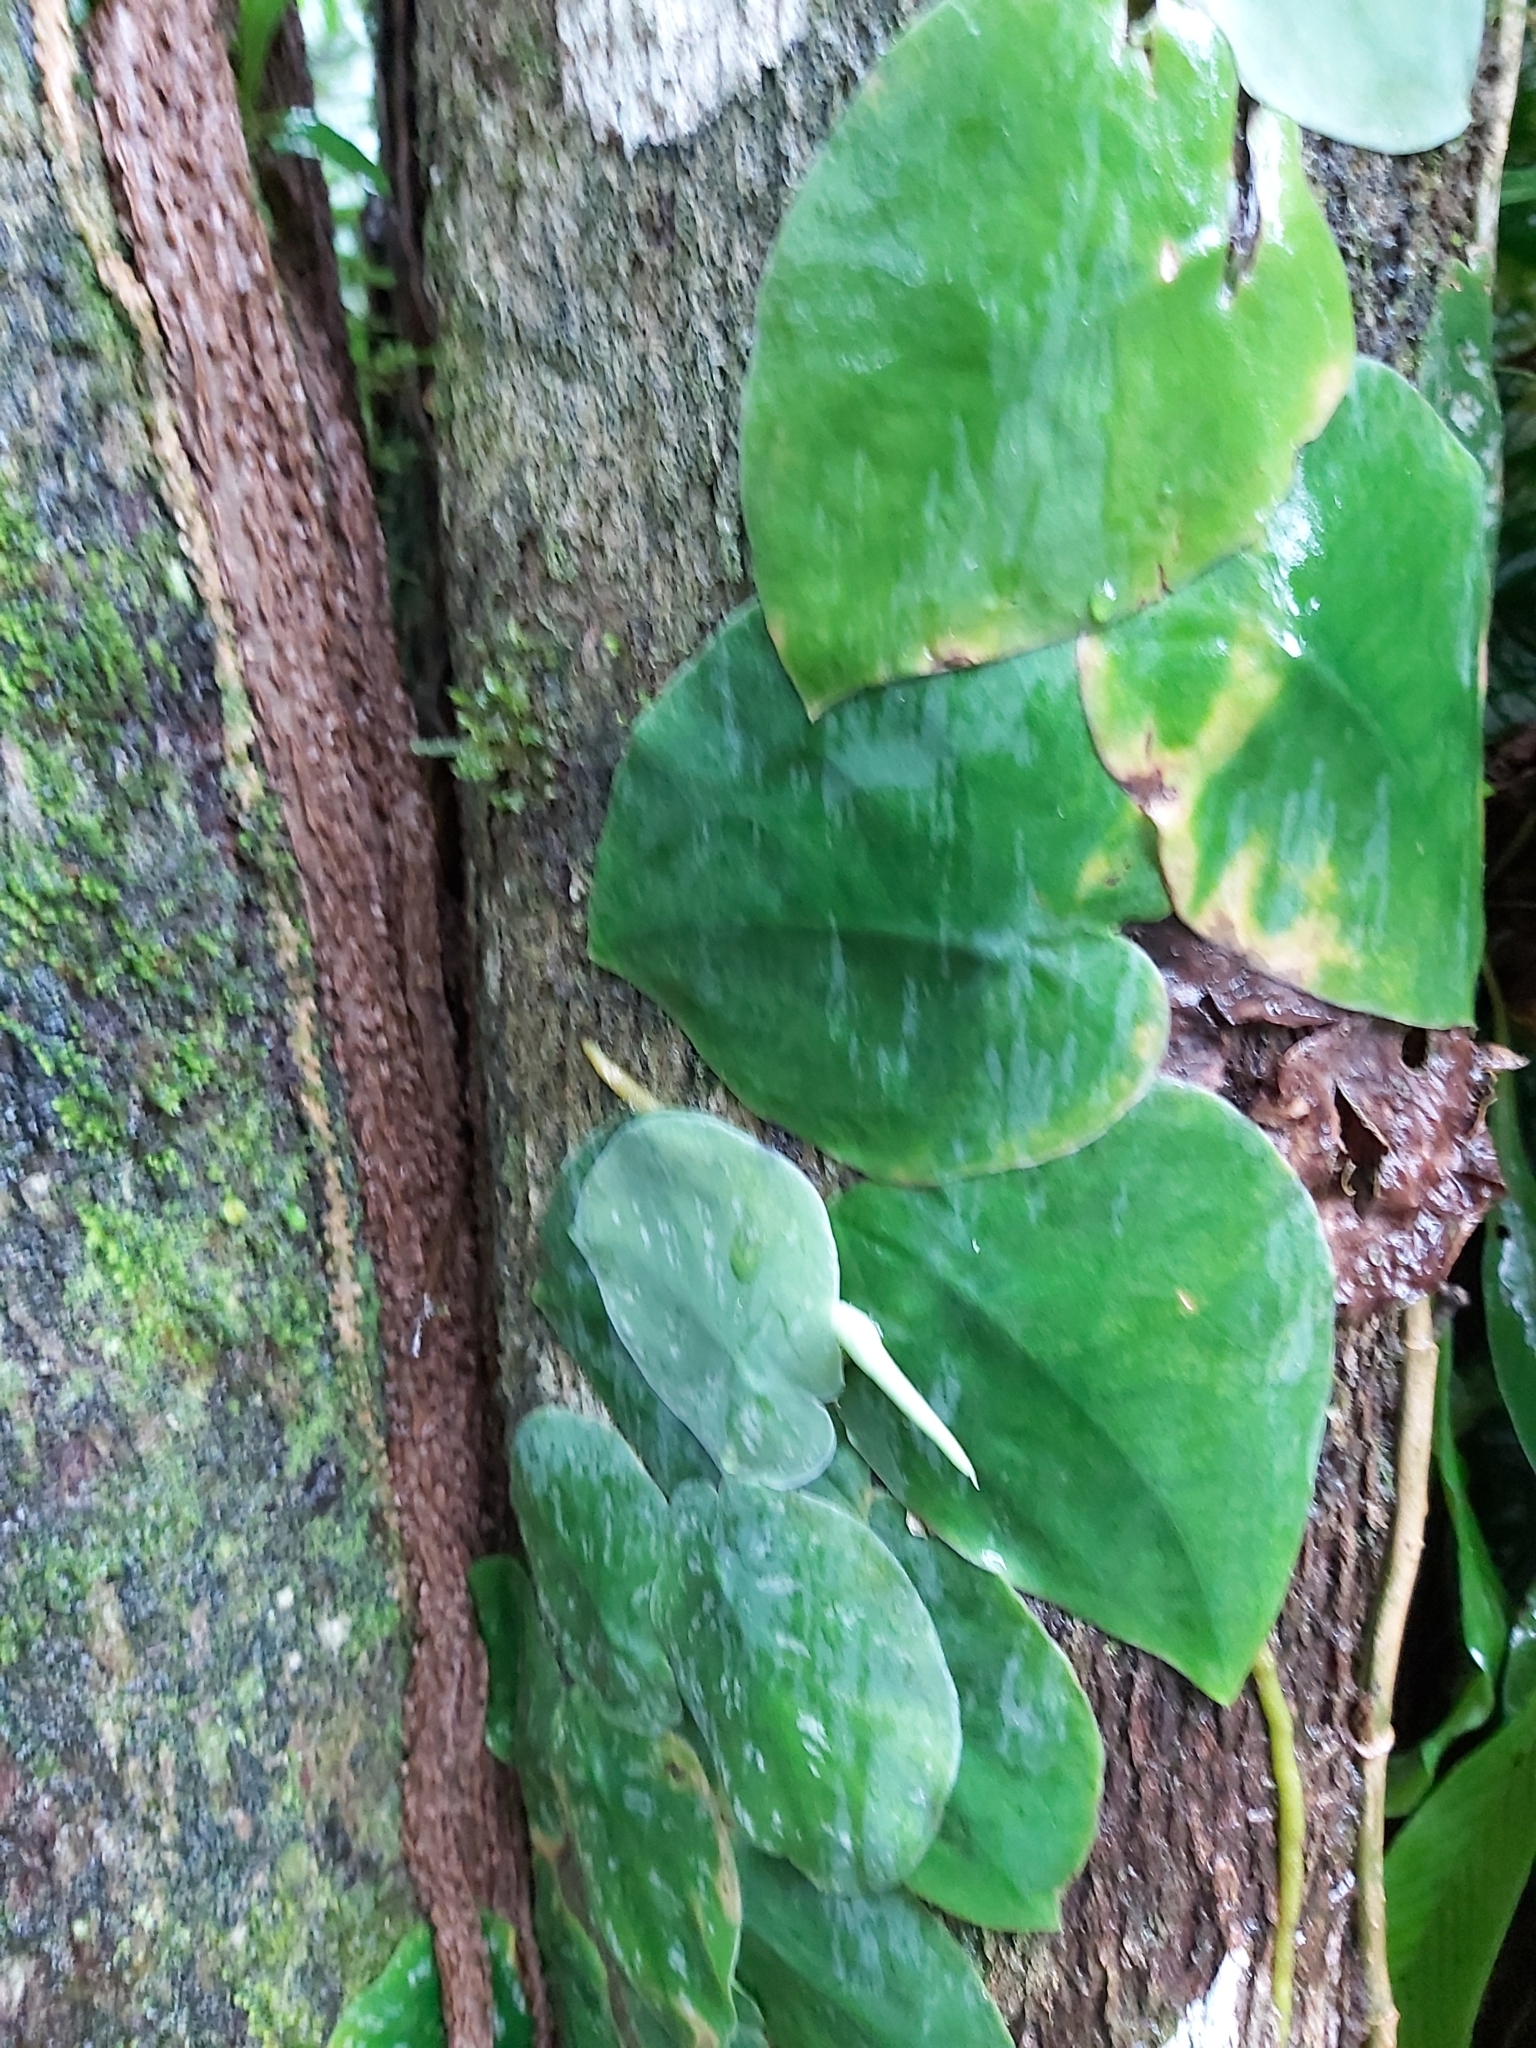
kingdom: Plantae
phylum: Tracheophyta
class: Liliopsida
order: Alismatales
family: Araceae
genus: Monstera
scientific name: Monstera tuberculata
